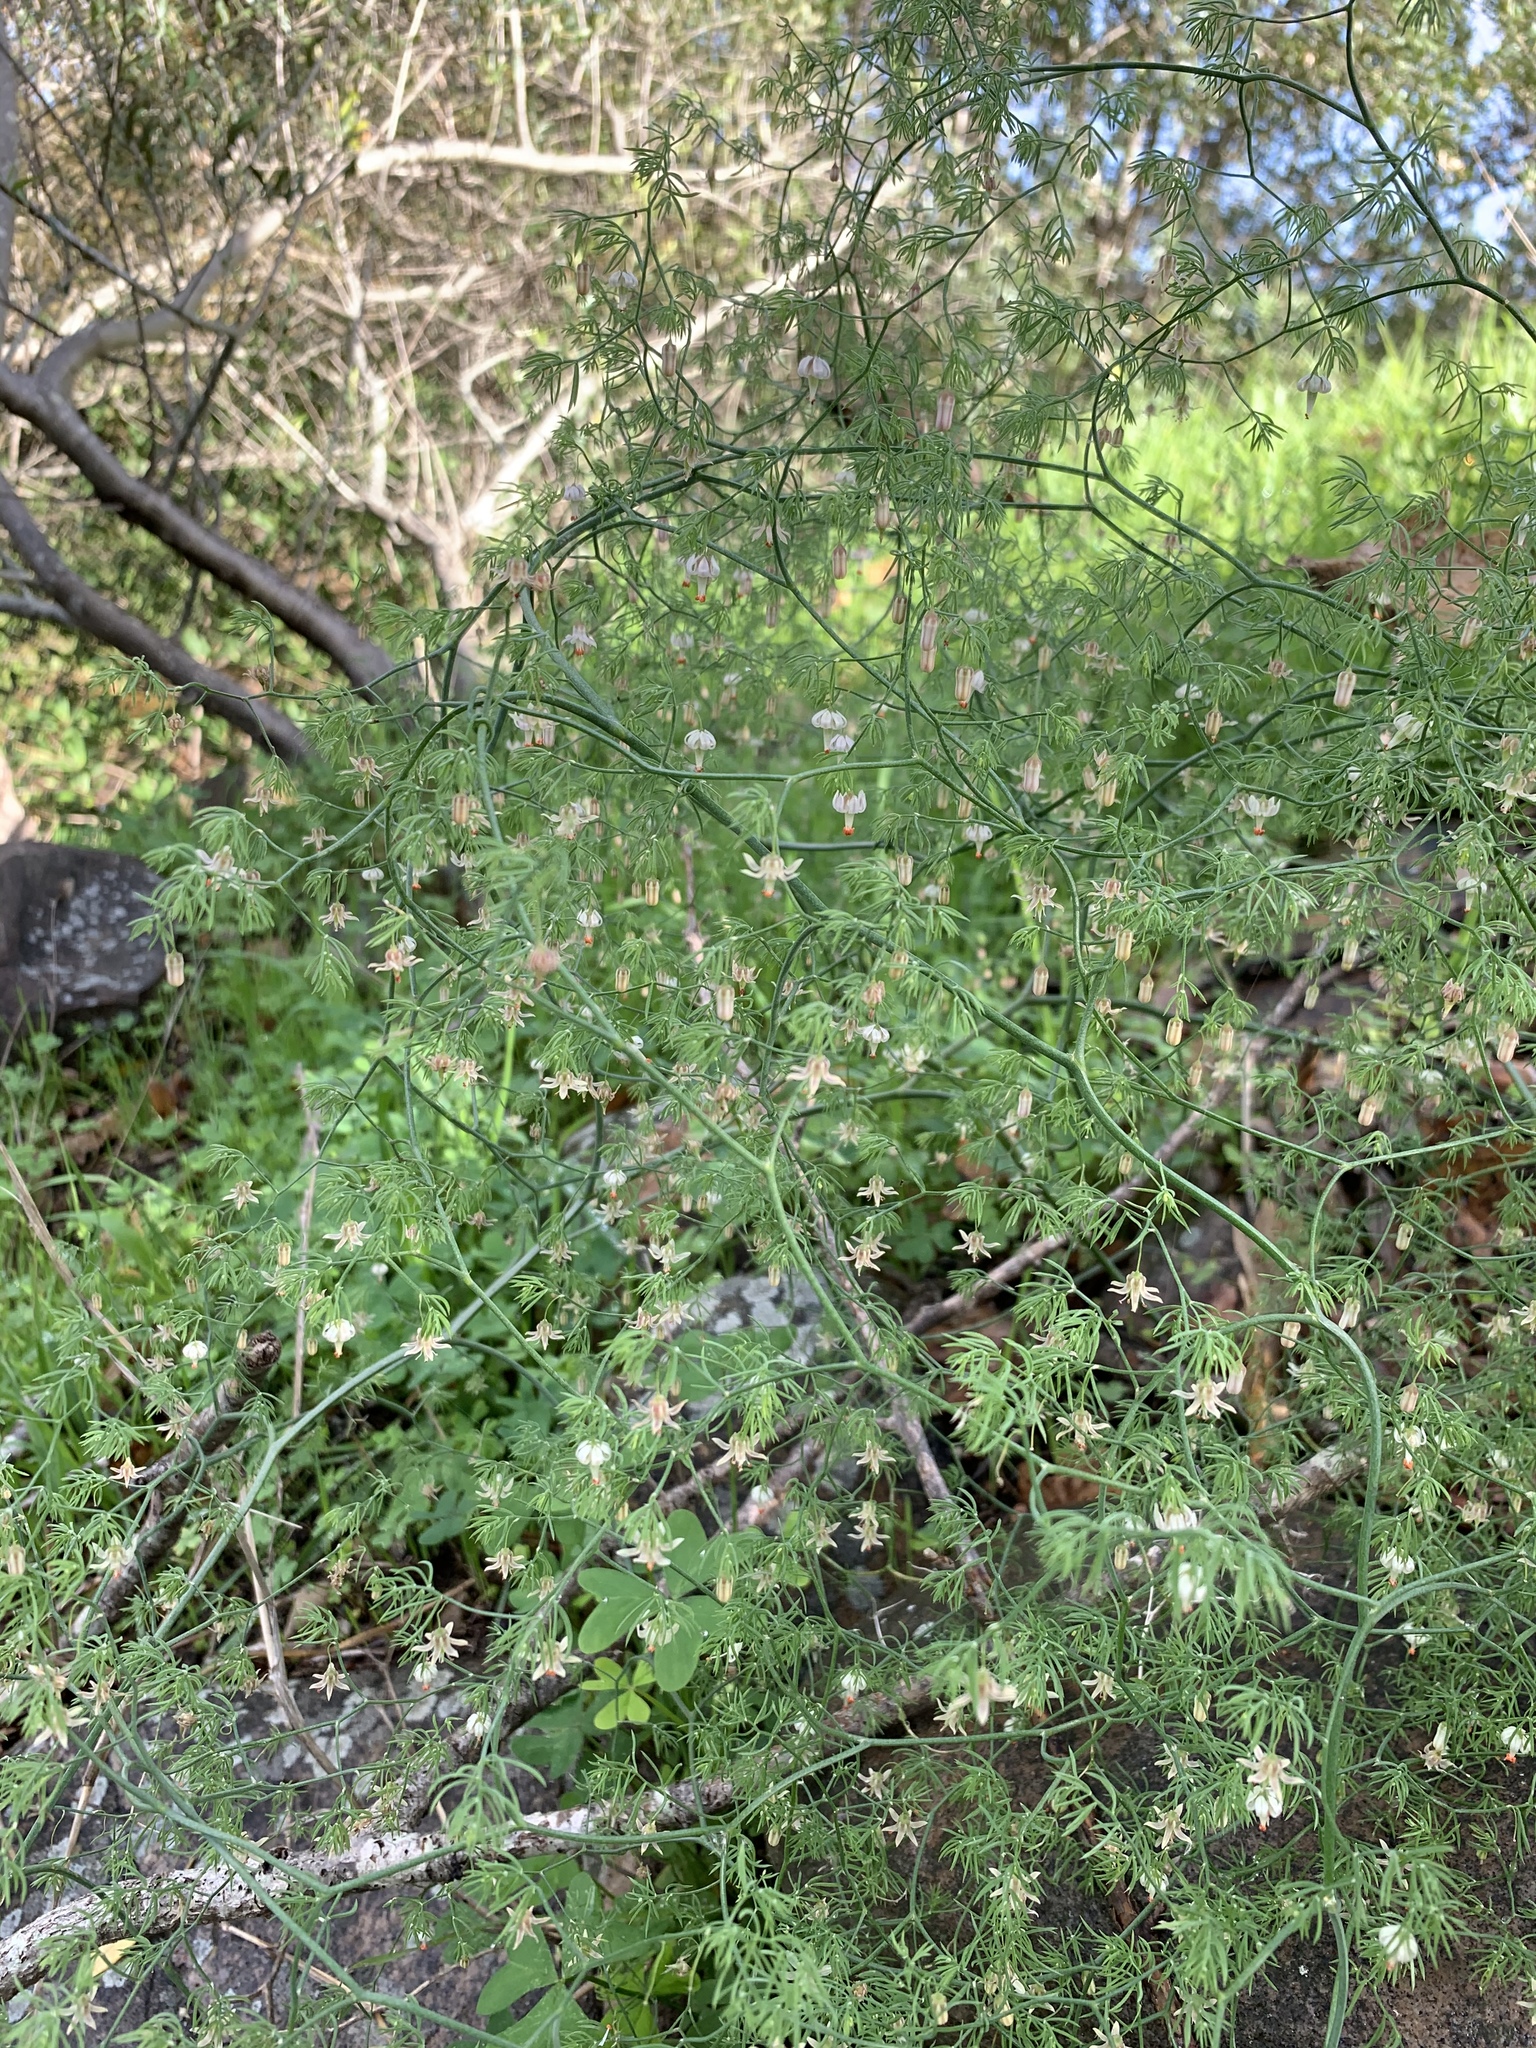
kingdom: Plantae
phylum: Tracheophyta
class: Liliopsida
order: Asparagales
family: Asparagaceae
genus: Asparagus
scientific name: Asparagus declinatus
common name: Bridal-creeper
